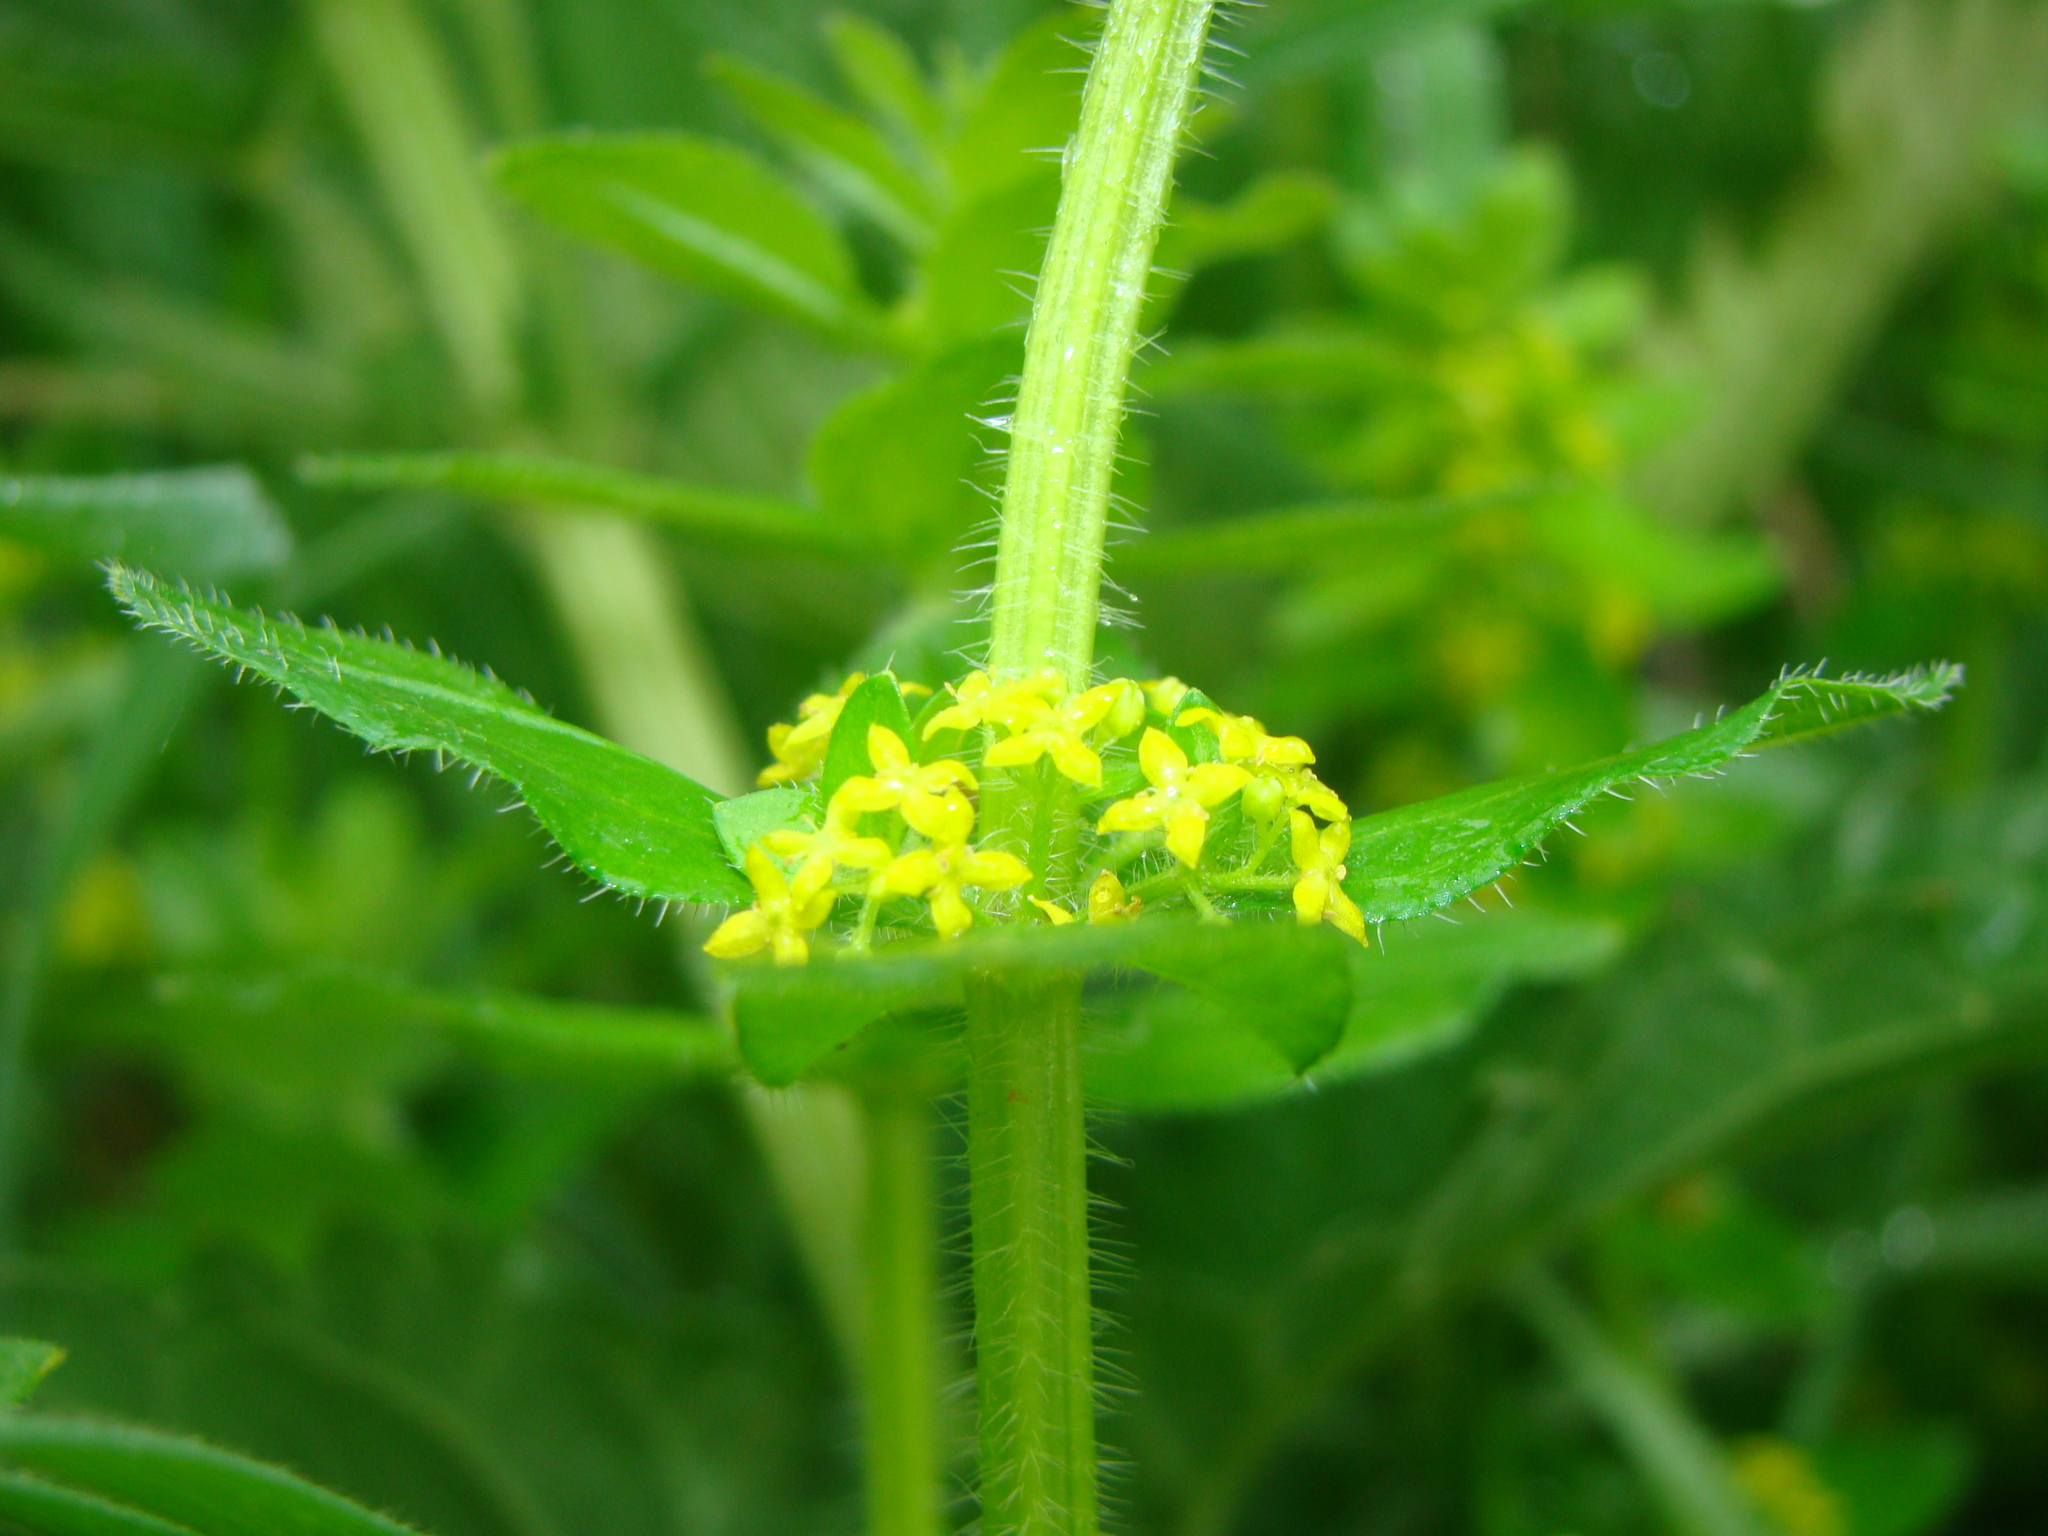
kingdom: Plantae
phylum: Tracheophyta
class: Magnoliopsida
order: Gentianales
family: Rubiaceae
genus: Cruciata
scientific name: Cruciata laevipes
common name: Crosswort
